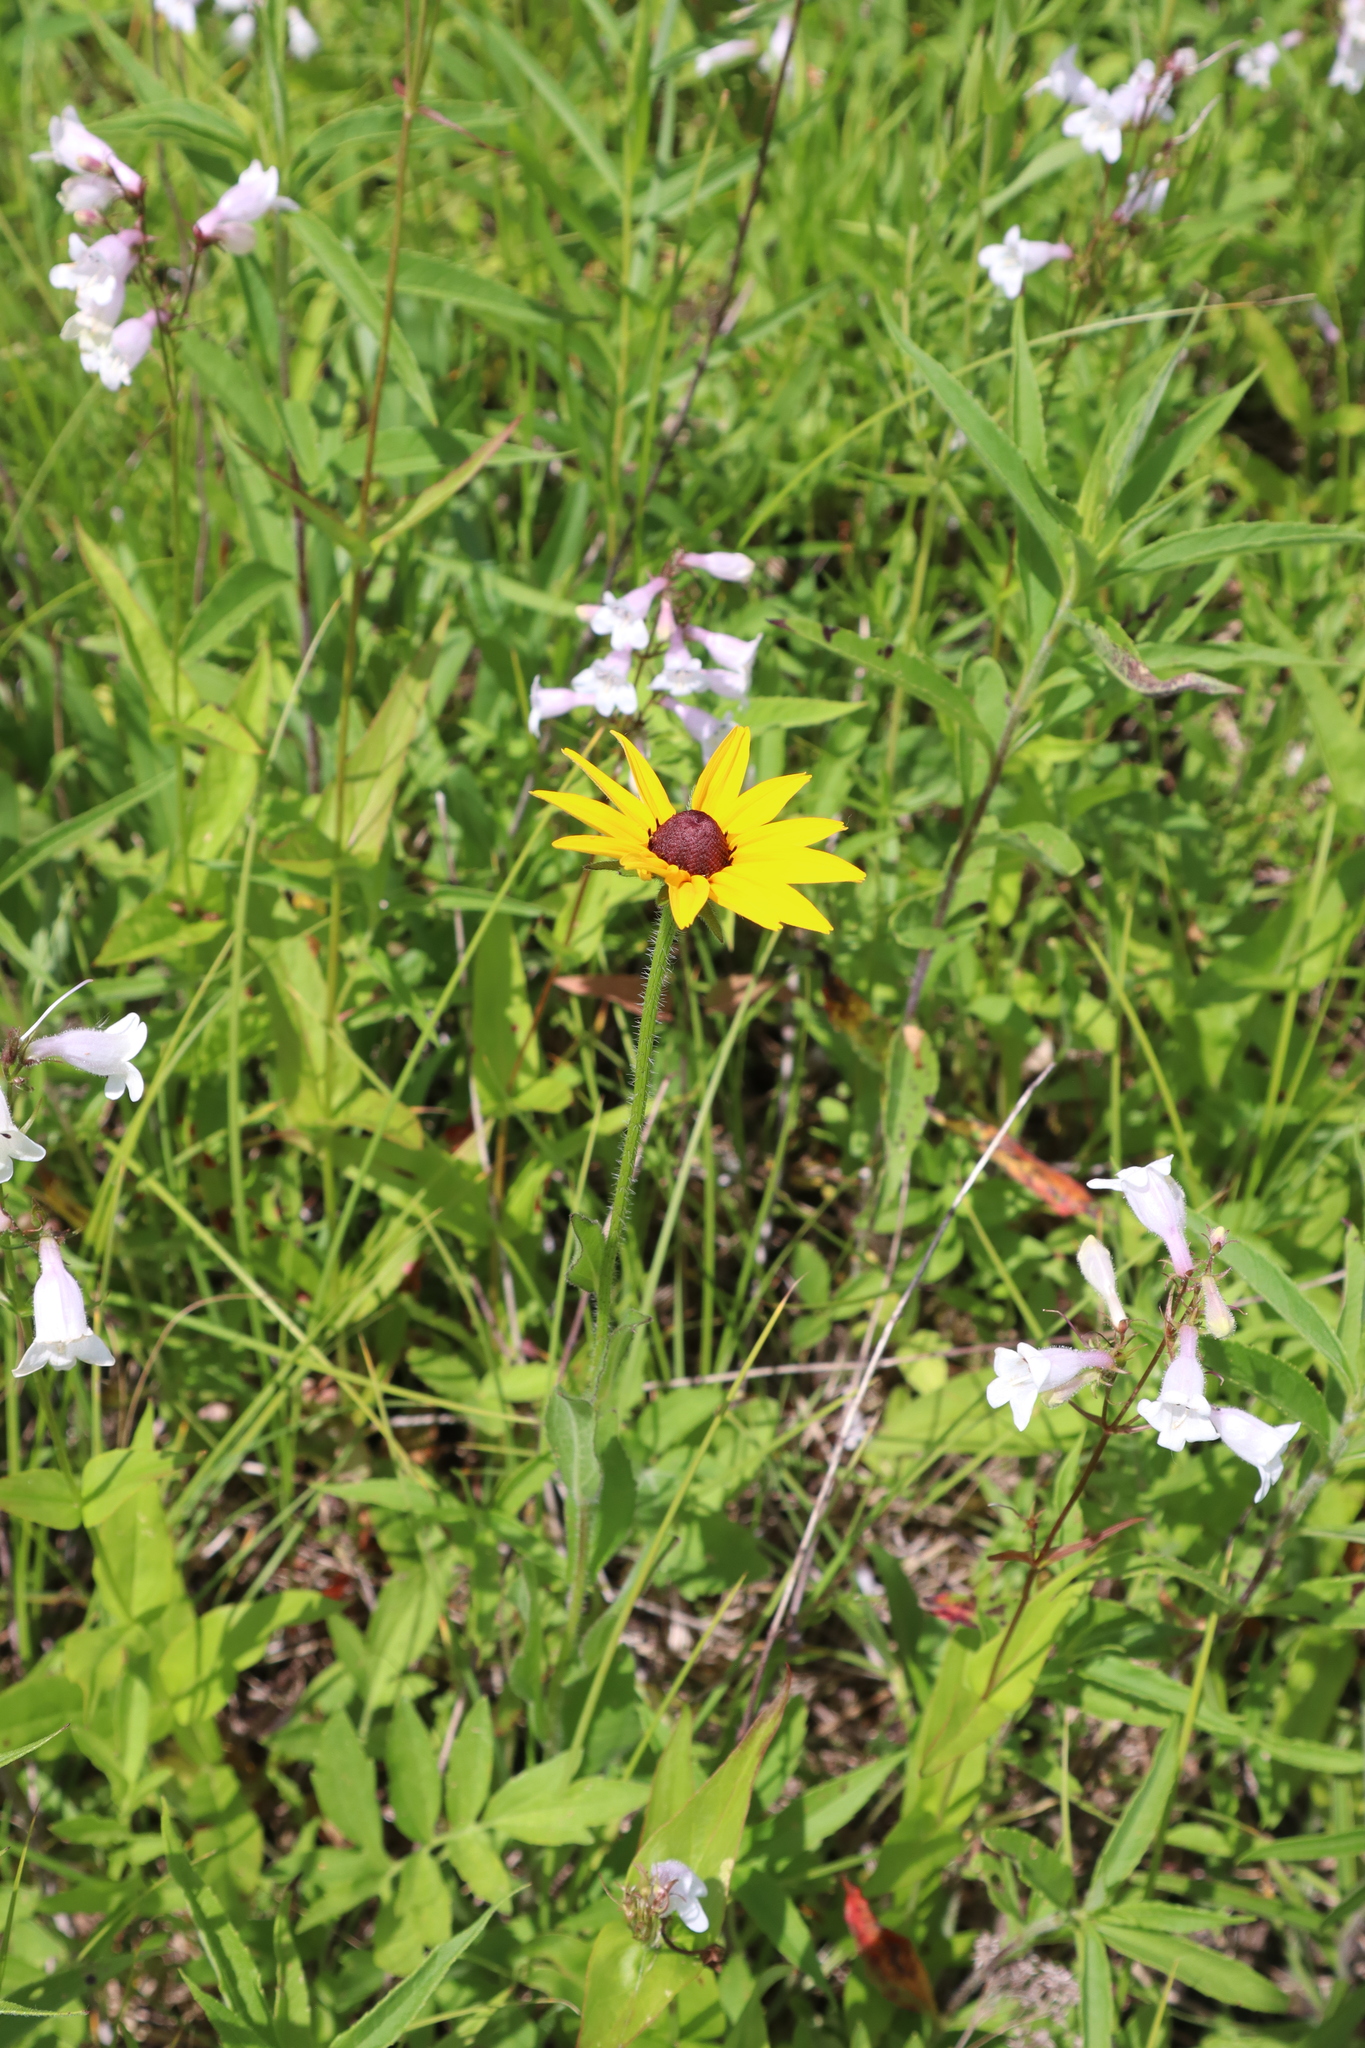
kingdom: Plantae
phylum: Tracheophyta
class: Magnoliopsida
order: Asterales
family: Asteraceae
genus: Rudbeckia
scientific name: Rudbeckia hirta
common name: Black-eyed-susan
